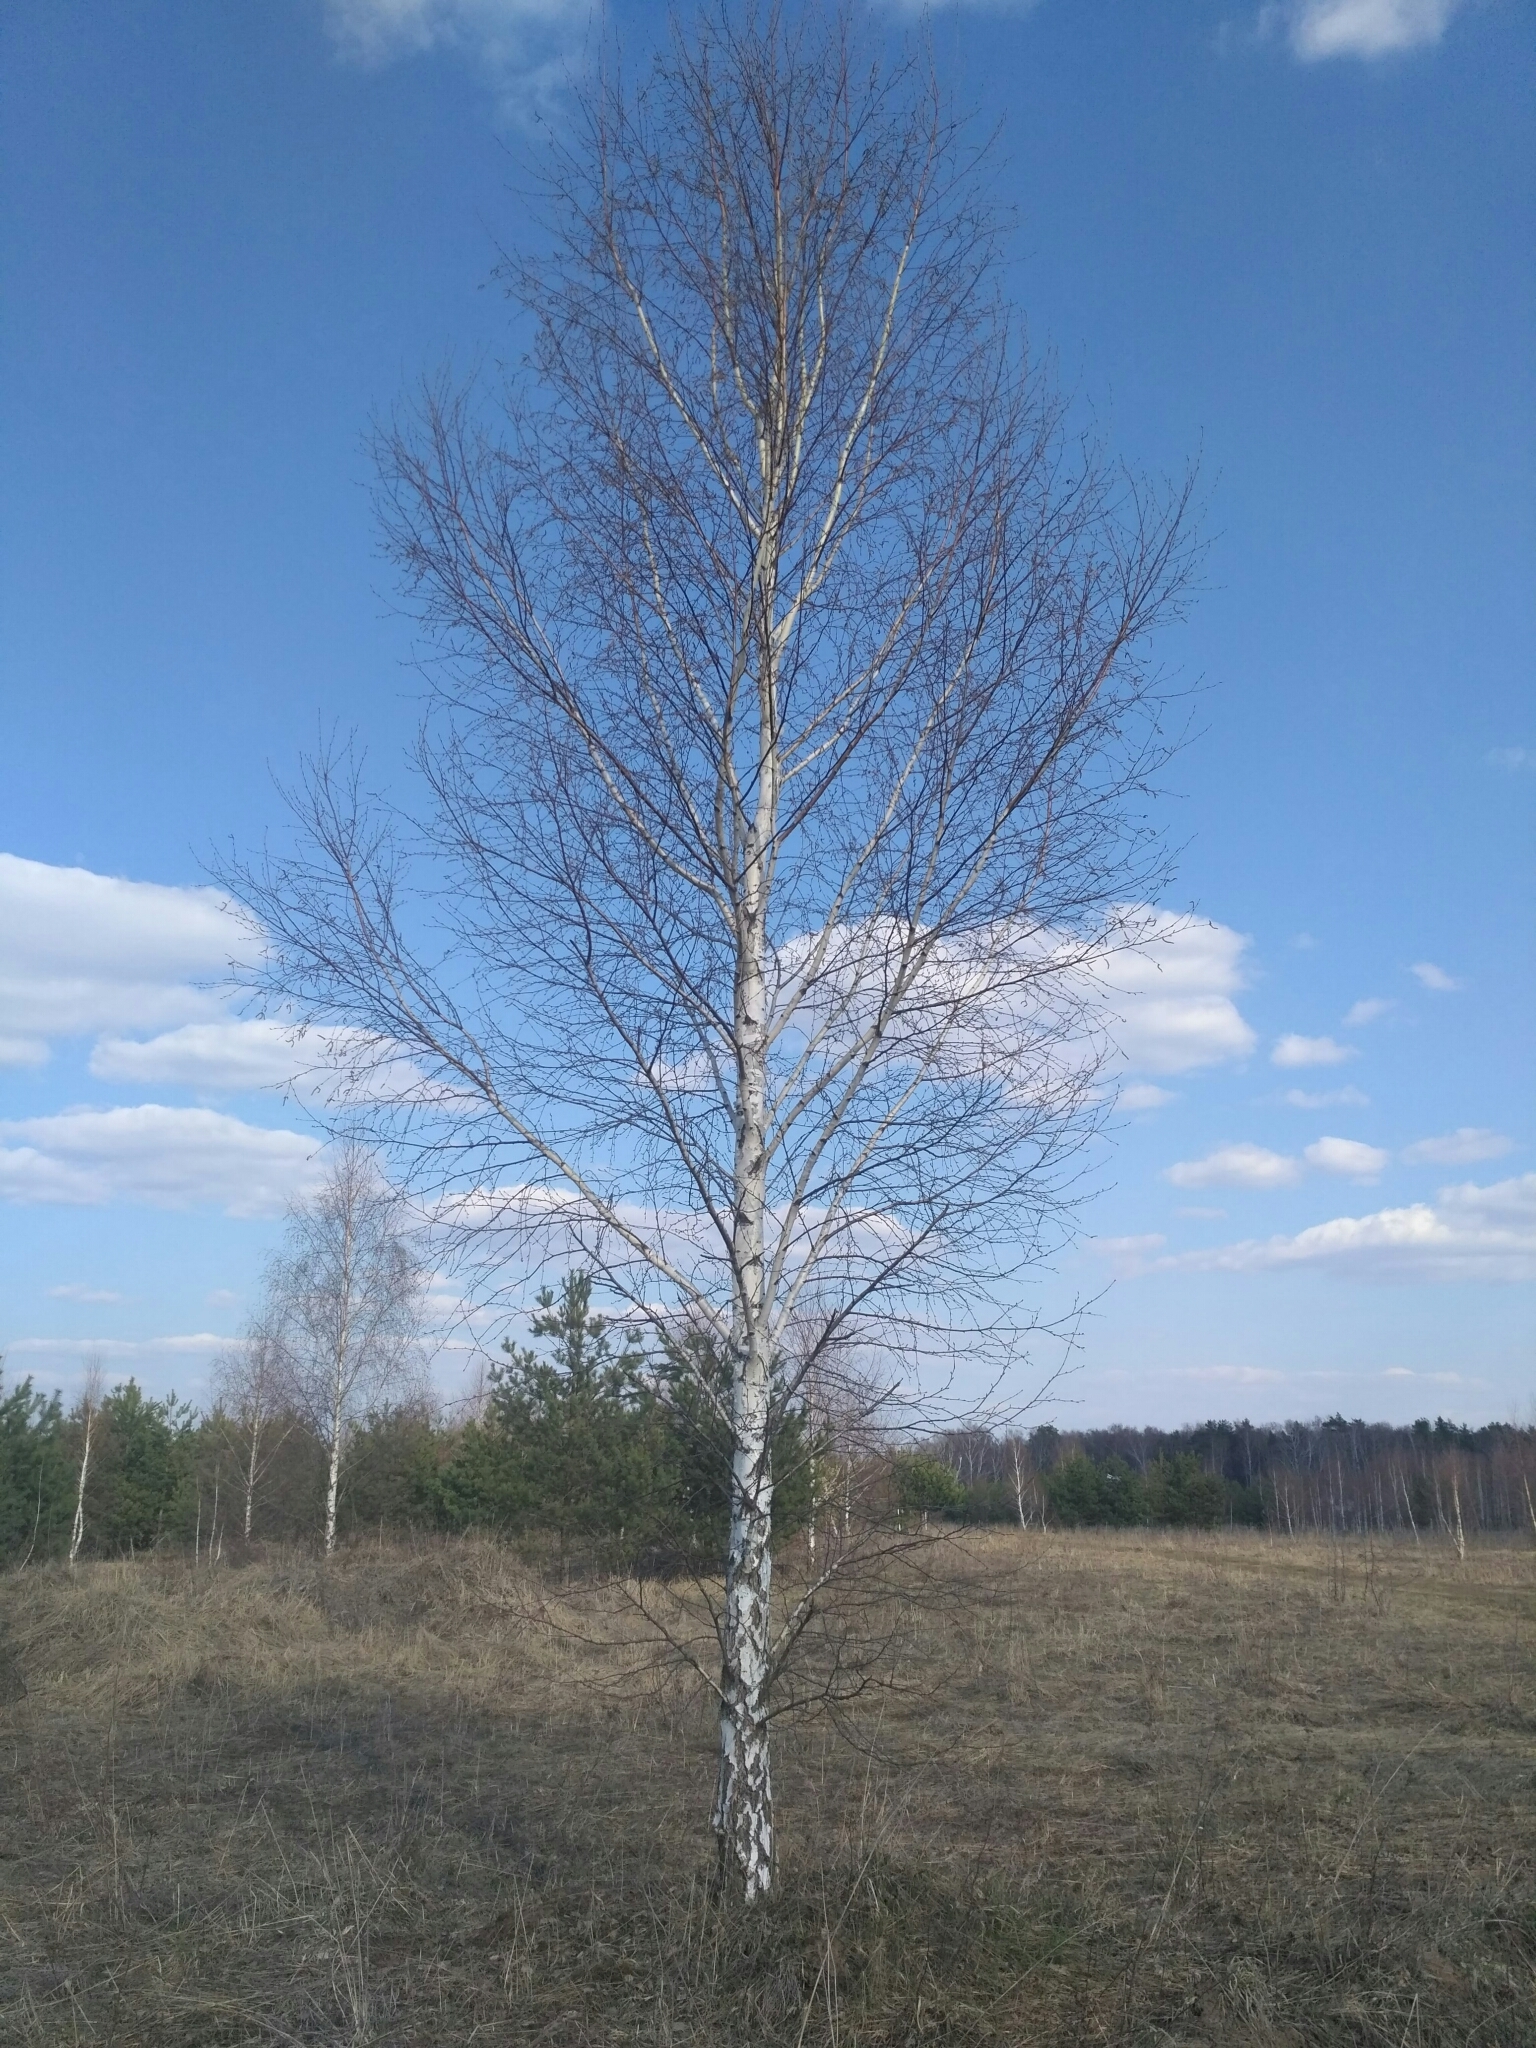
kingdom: Plantae
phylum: Tracheophyta
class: Magnoliopsida
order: Fagales
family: Betulaceae
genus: Betula
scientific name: Betula pendula
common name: Silver birch
